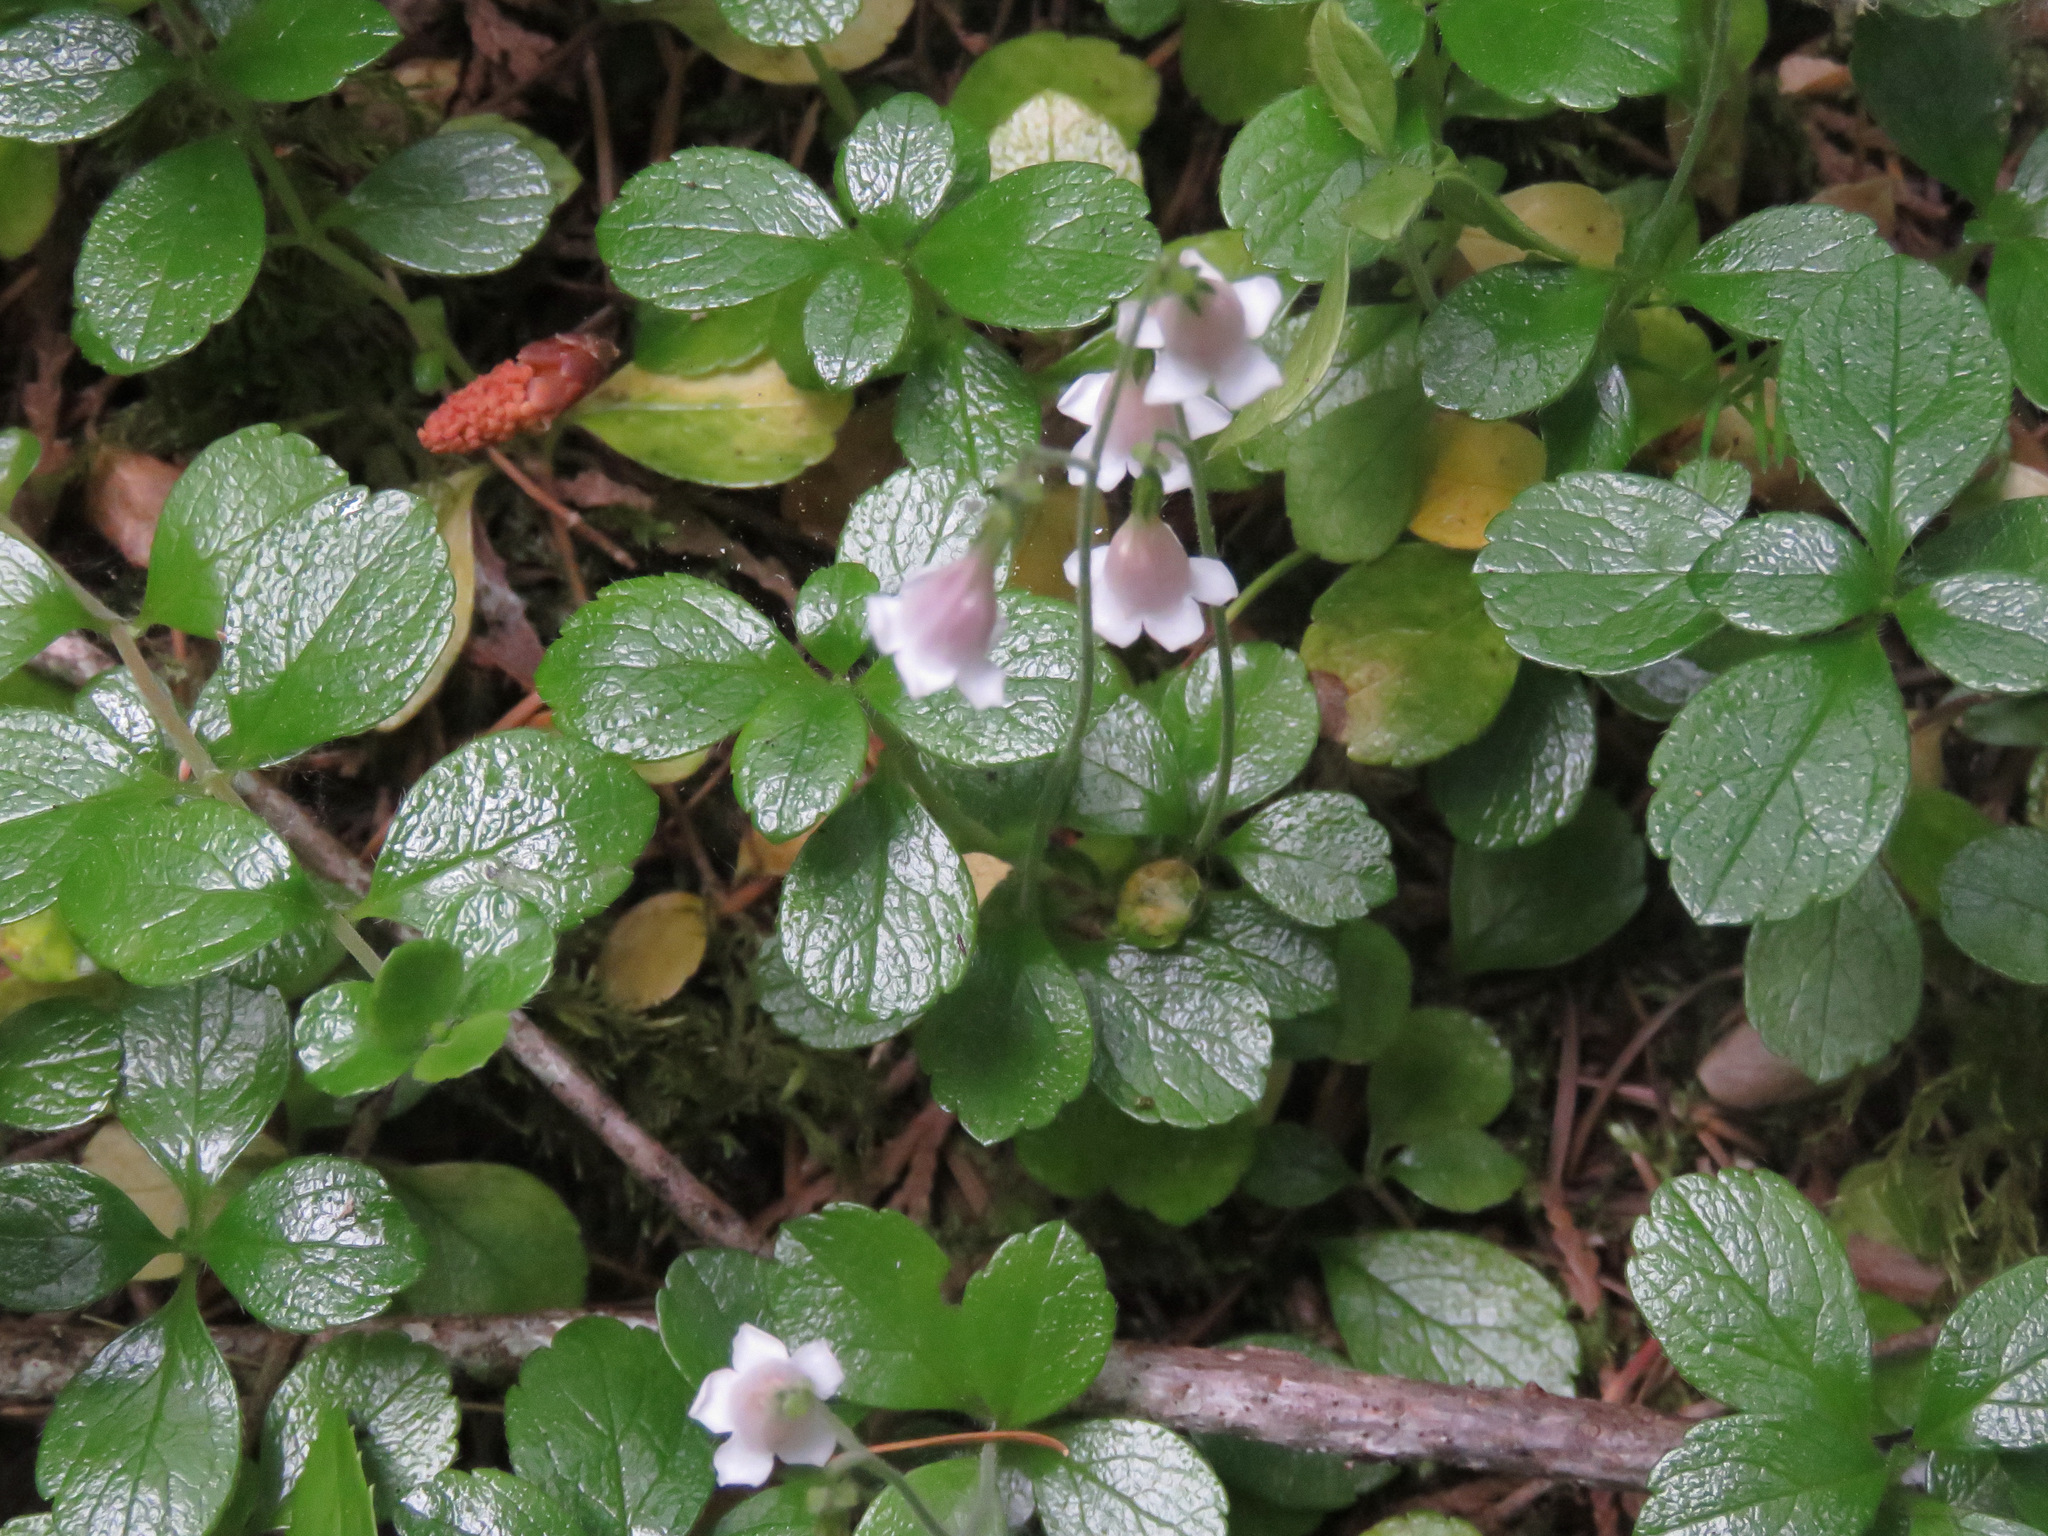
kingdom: Plantae
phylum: Tracheophyta
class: Magnoliopsida
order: Dipsacales
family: Caprifoliaceae
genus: Linnaea
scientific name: Linnaea borealis
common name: Twinflower
